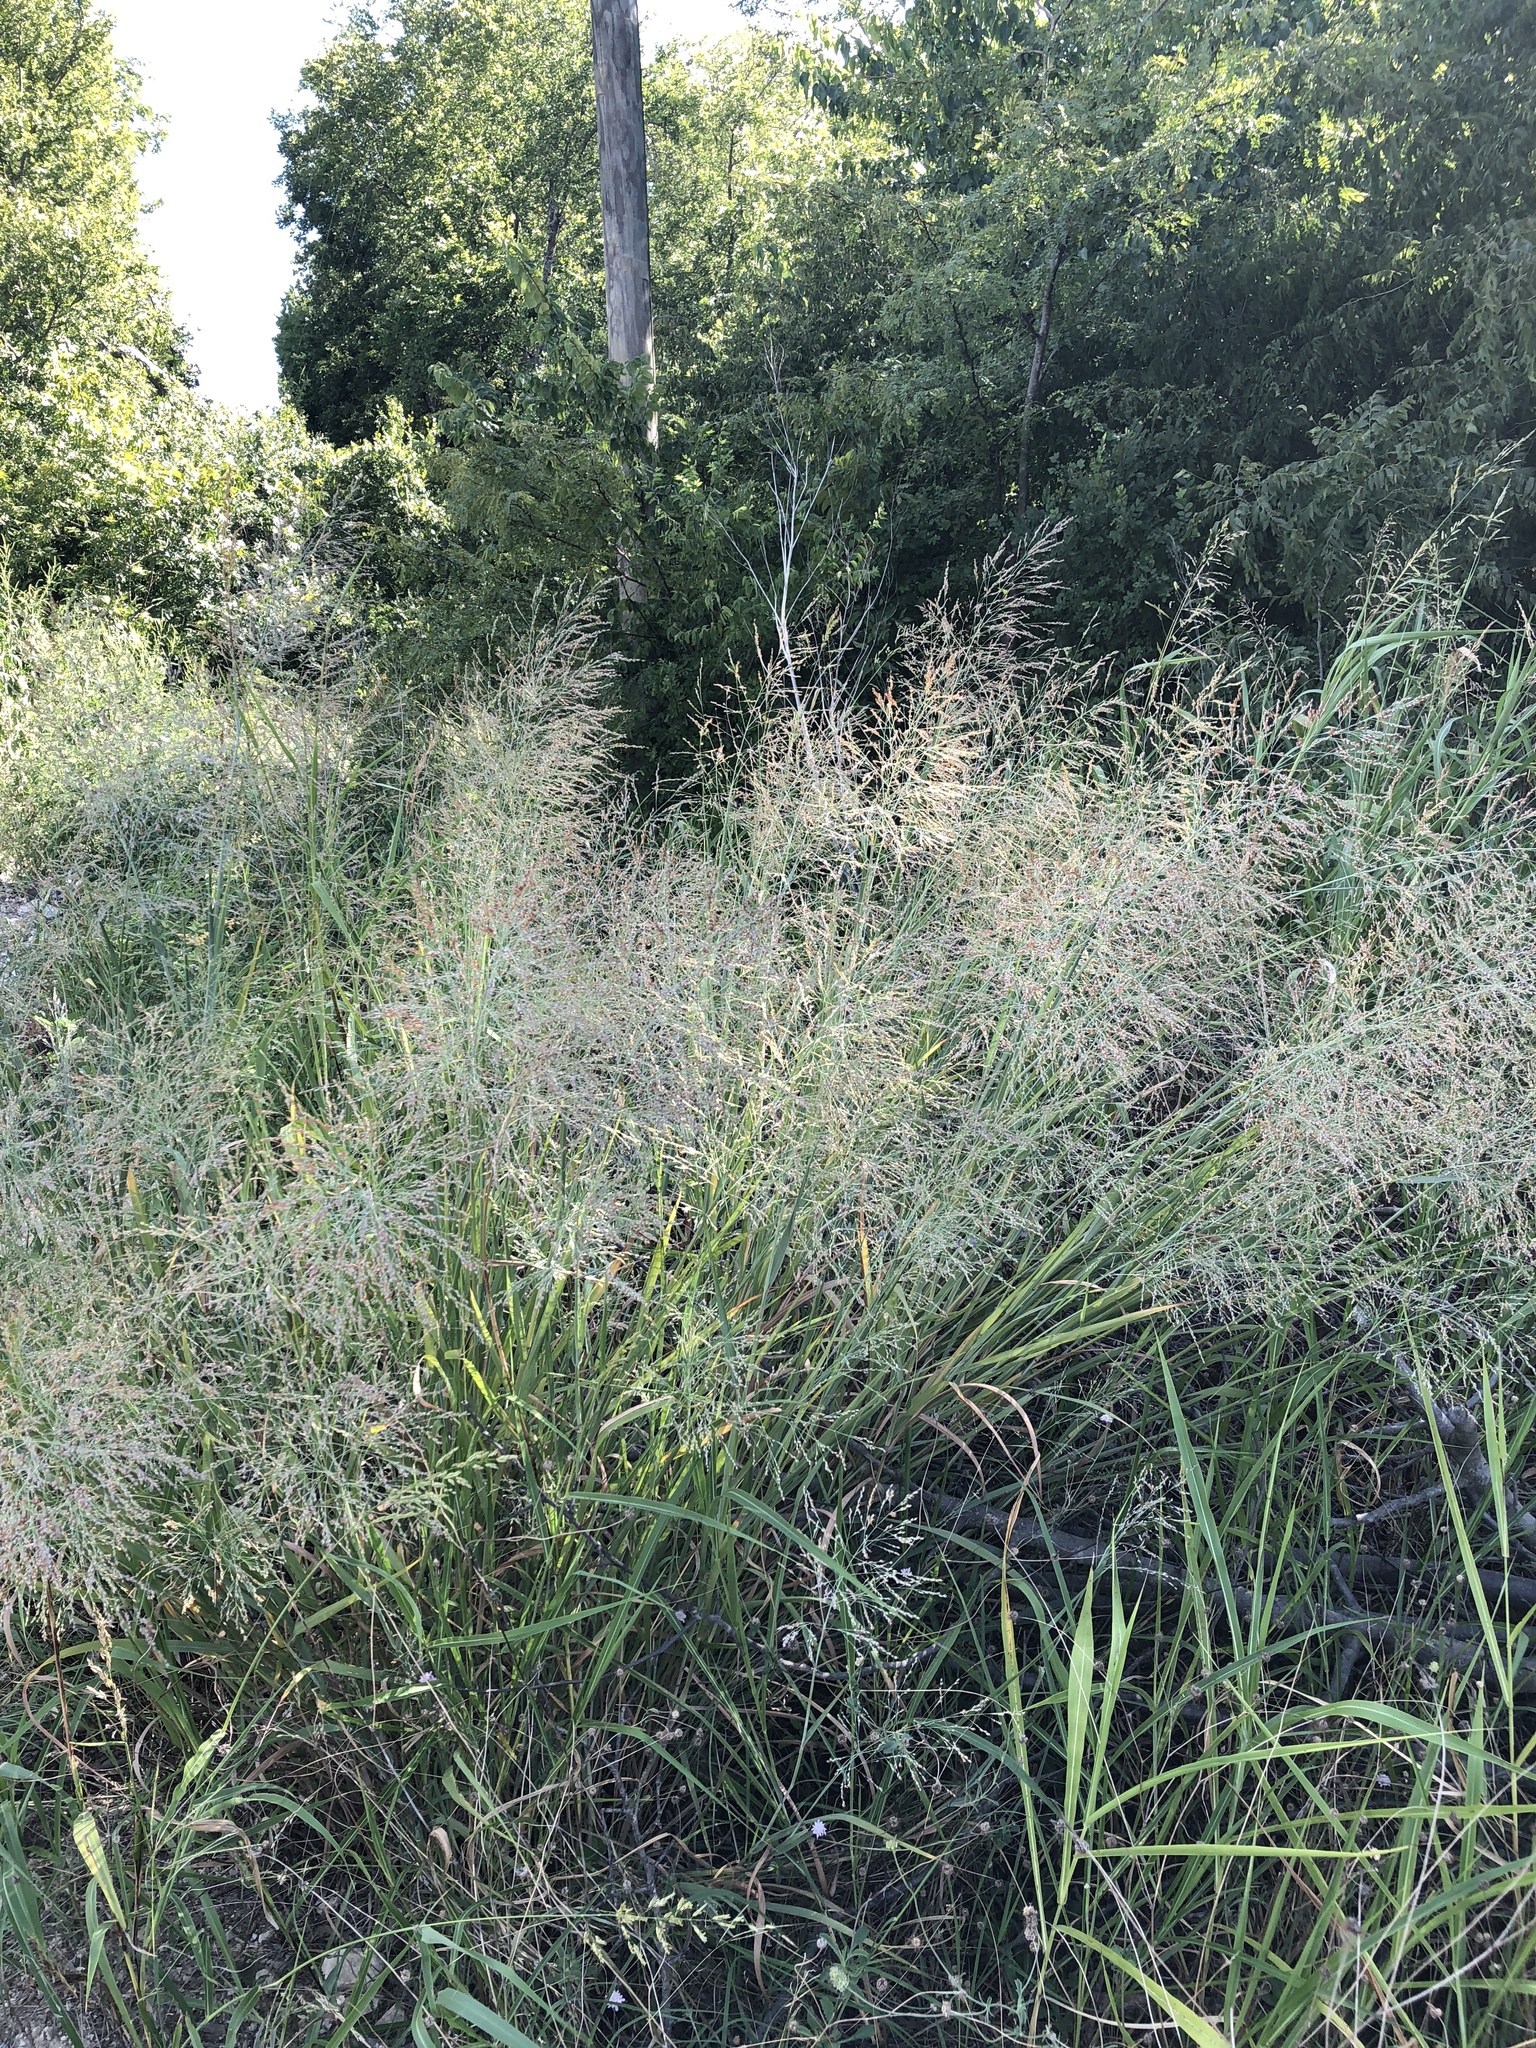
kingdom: Plantae
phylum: Tracheophyta
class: Liliopsida
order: Poales
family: Poaceae
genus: Panicum
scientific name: Panicum virgatum
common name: Switchgrass
